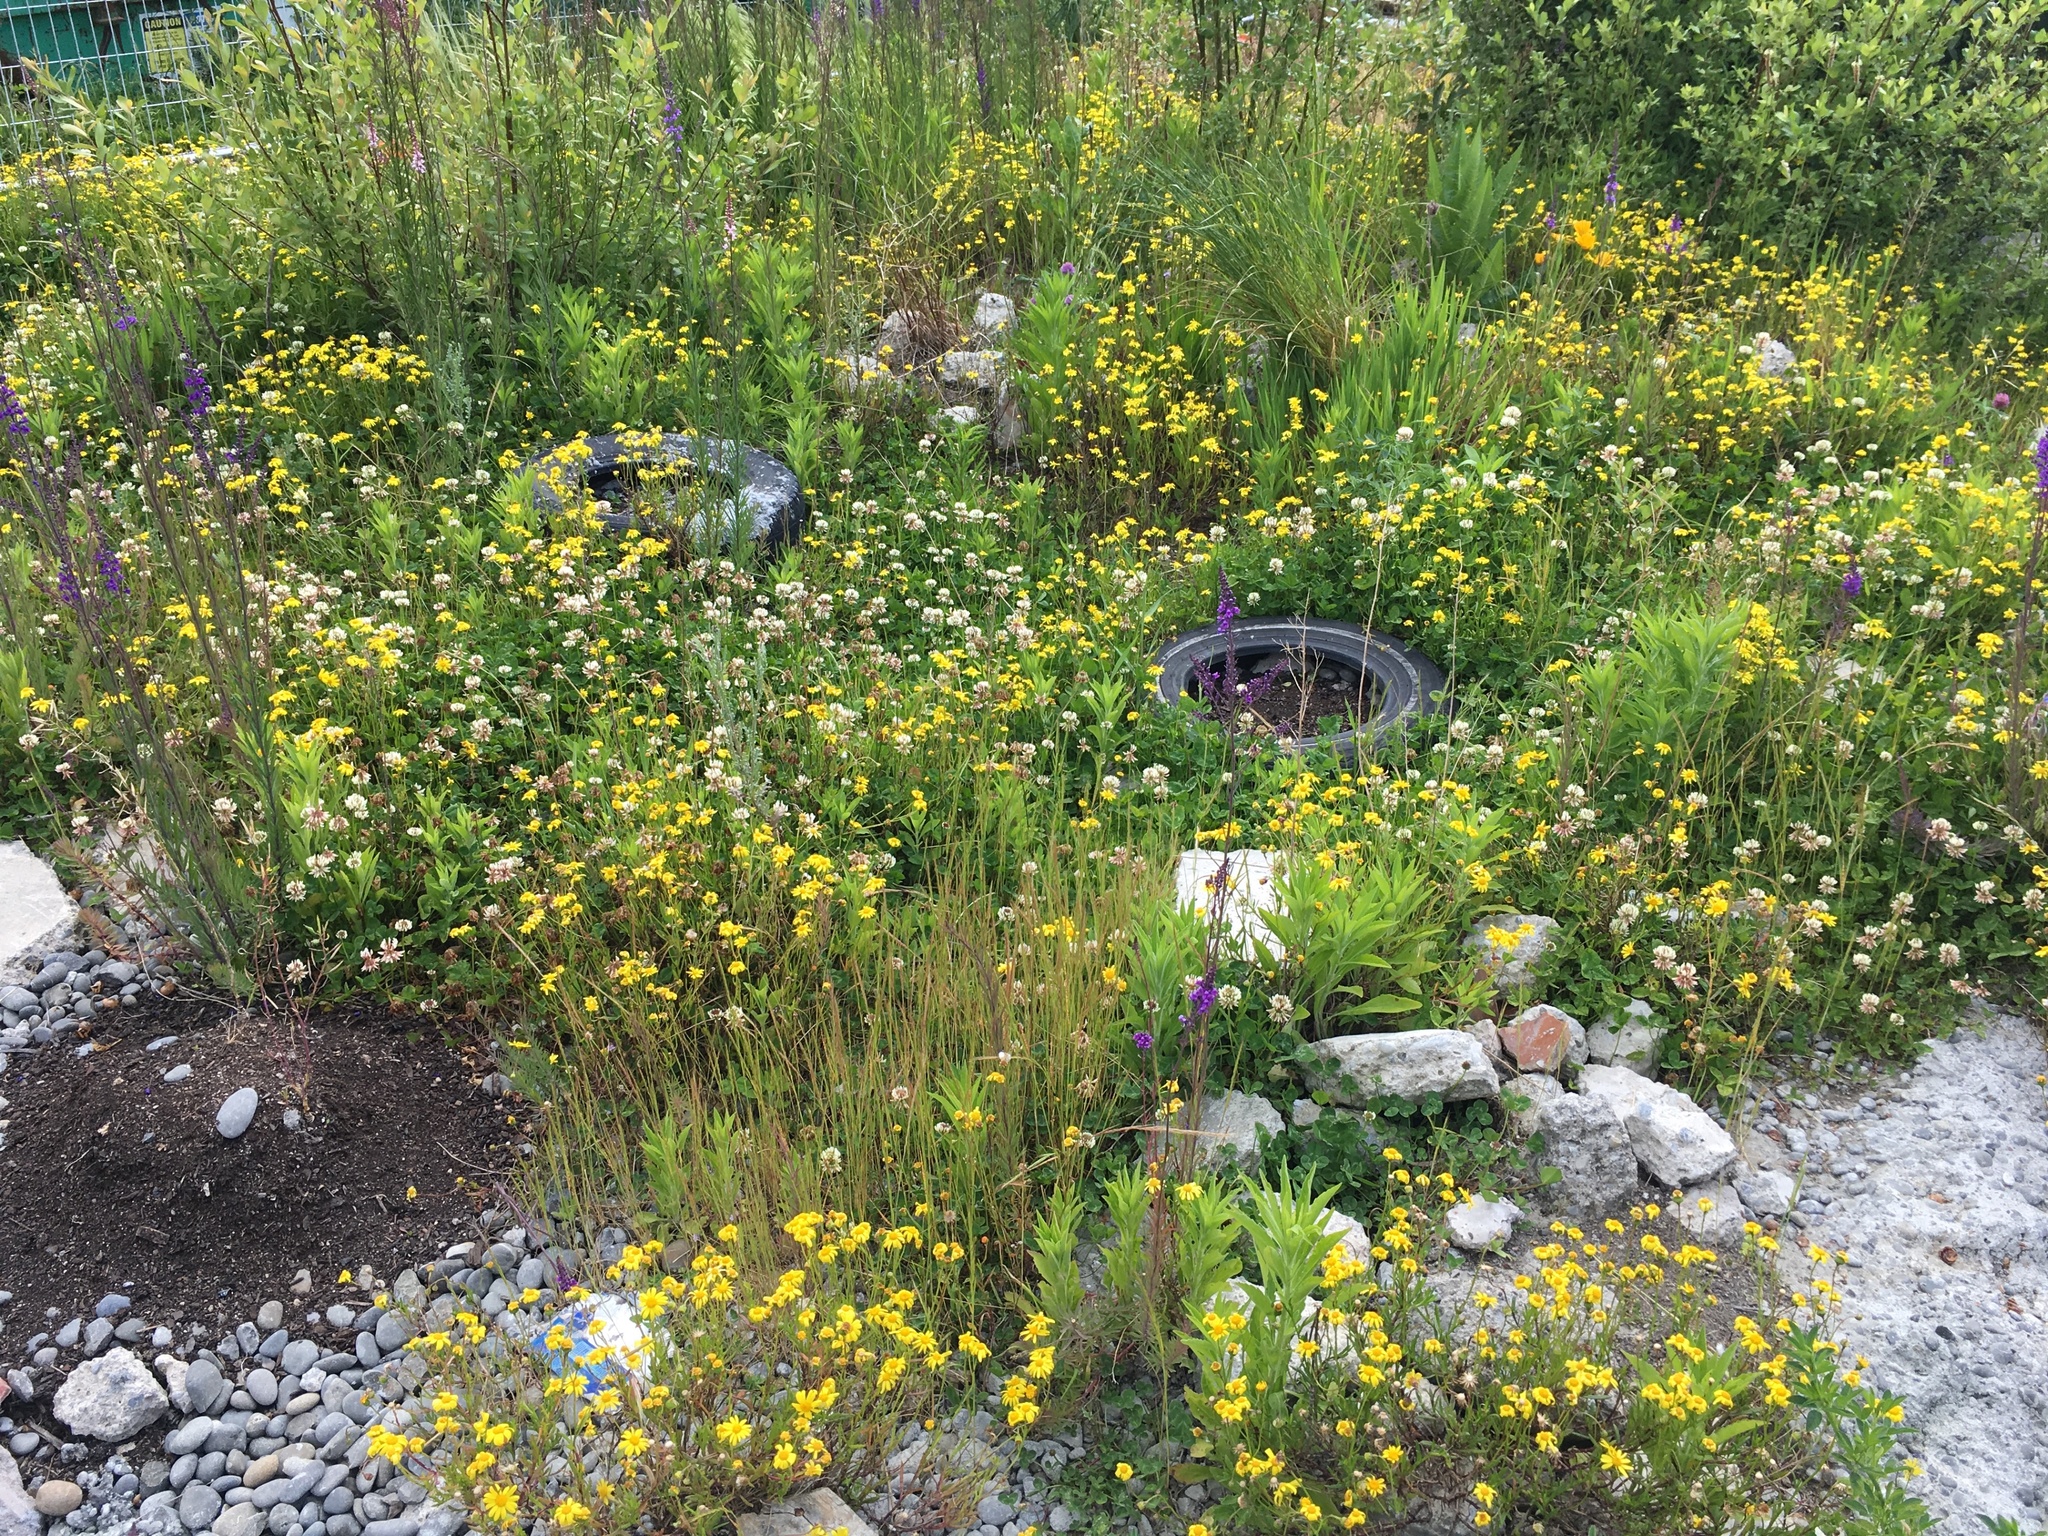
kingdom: Plantae
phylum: Tracheophyta
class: Magnoliopsida
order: Asterales
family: Asteraceae
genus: Senecio
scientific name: Senecio skirrhodon
